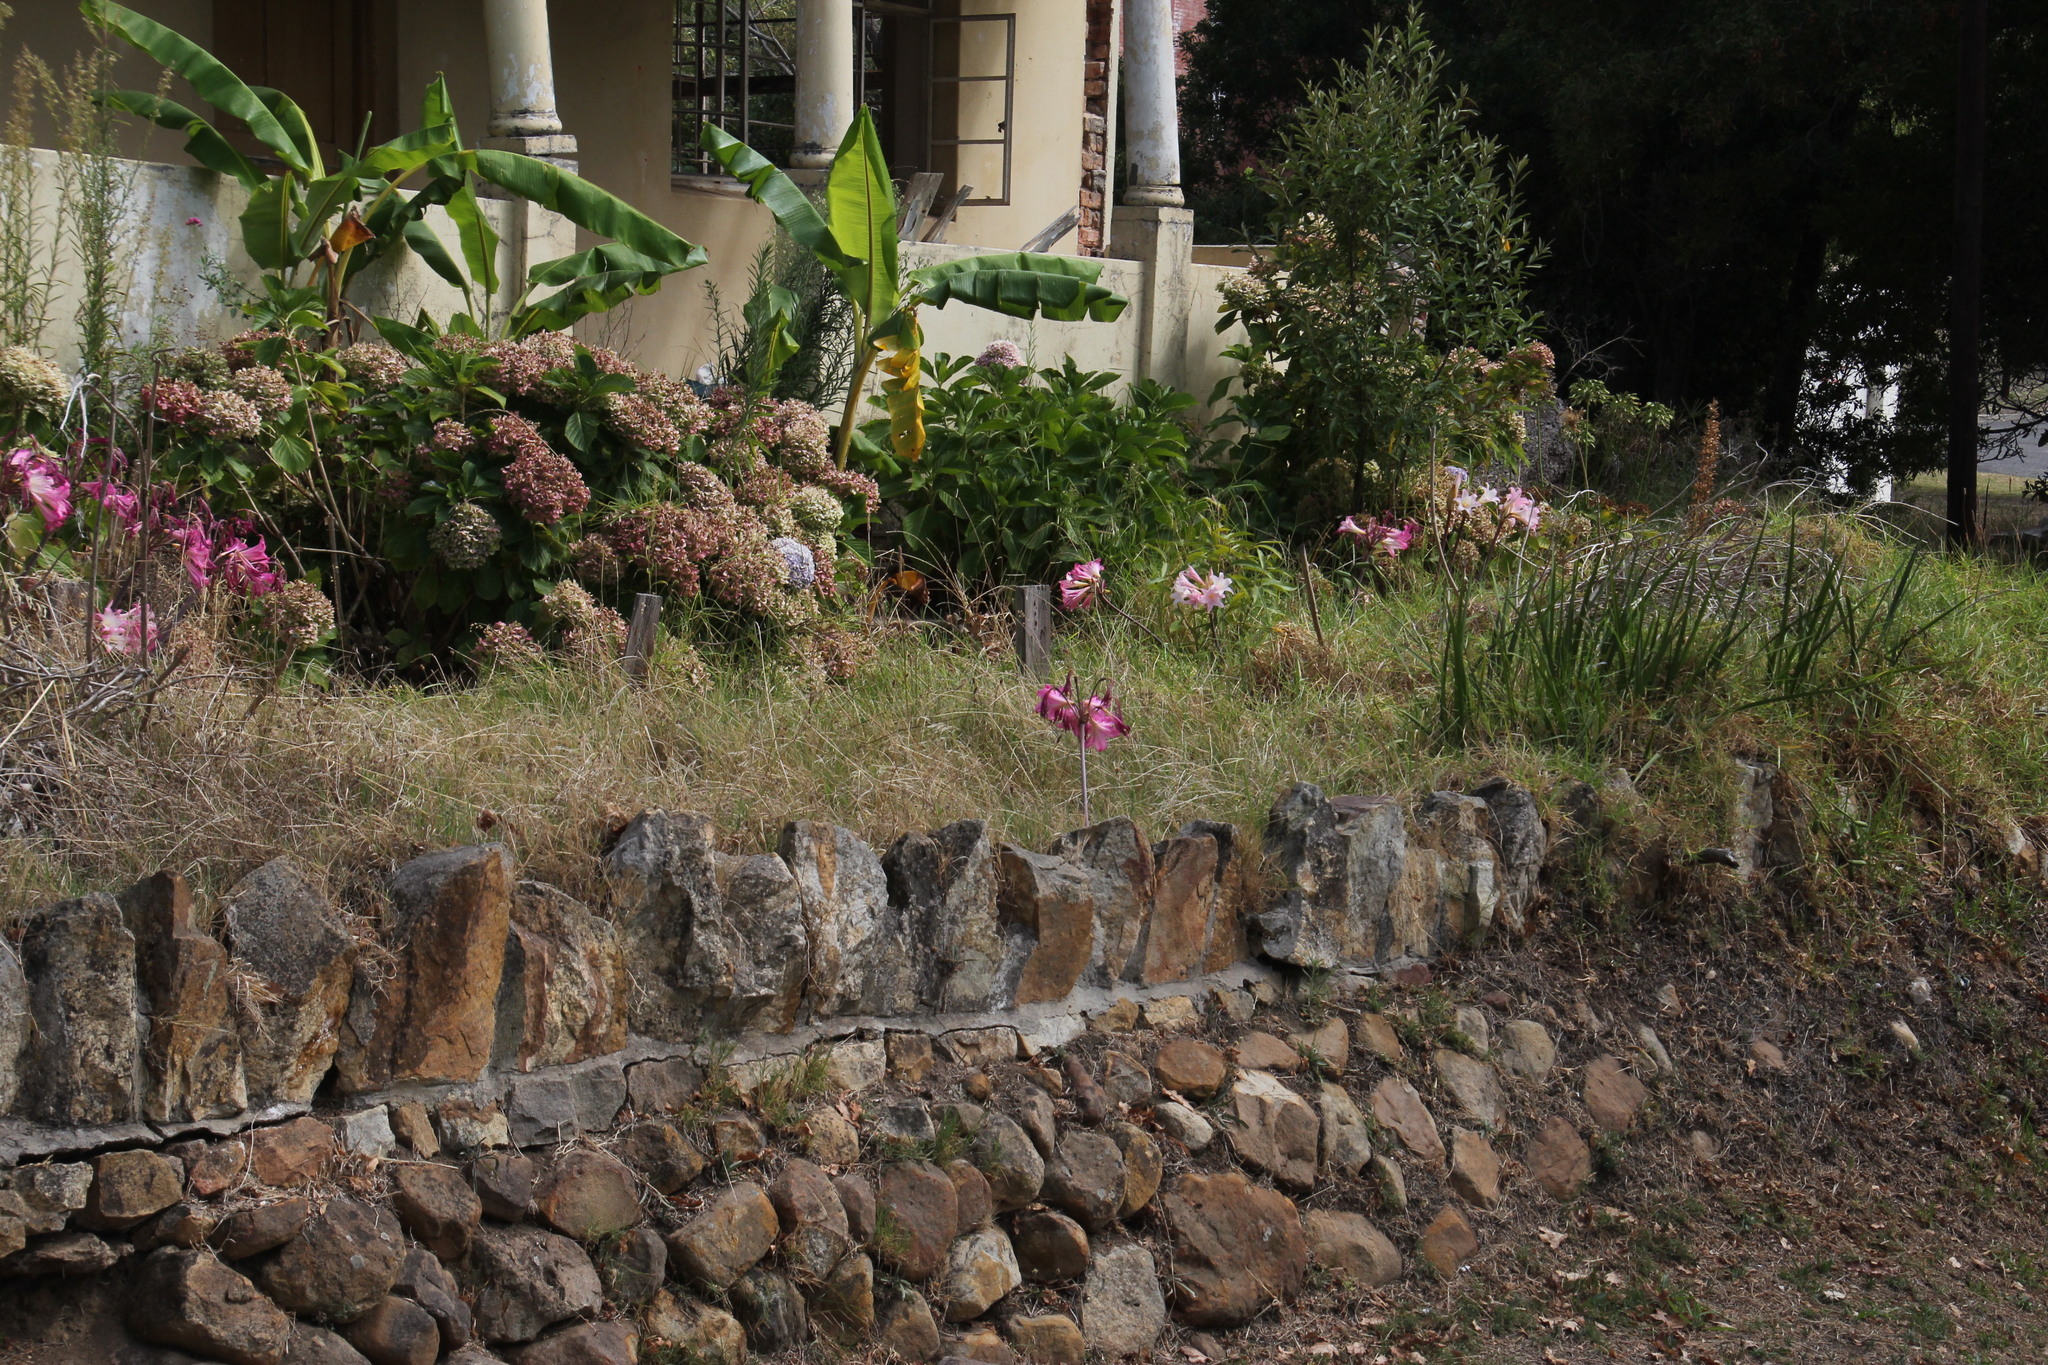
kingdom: Plantae
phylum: Tracheophyta
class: Liliopsida
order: Asparagales
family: Amaryllidaceae
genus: Amaryllis
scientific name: Amaryllis belladonna
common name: Jersey lily
